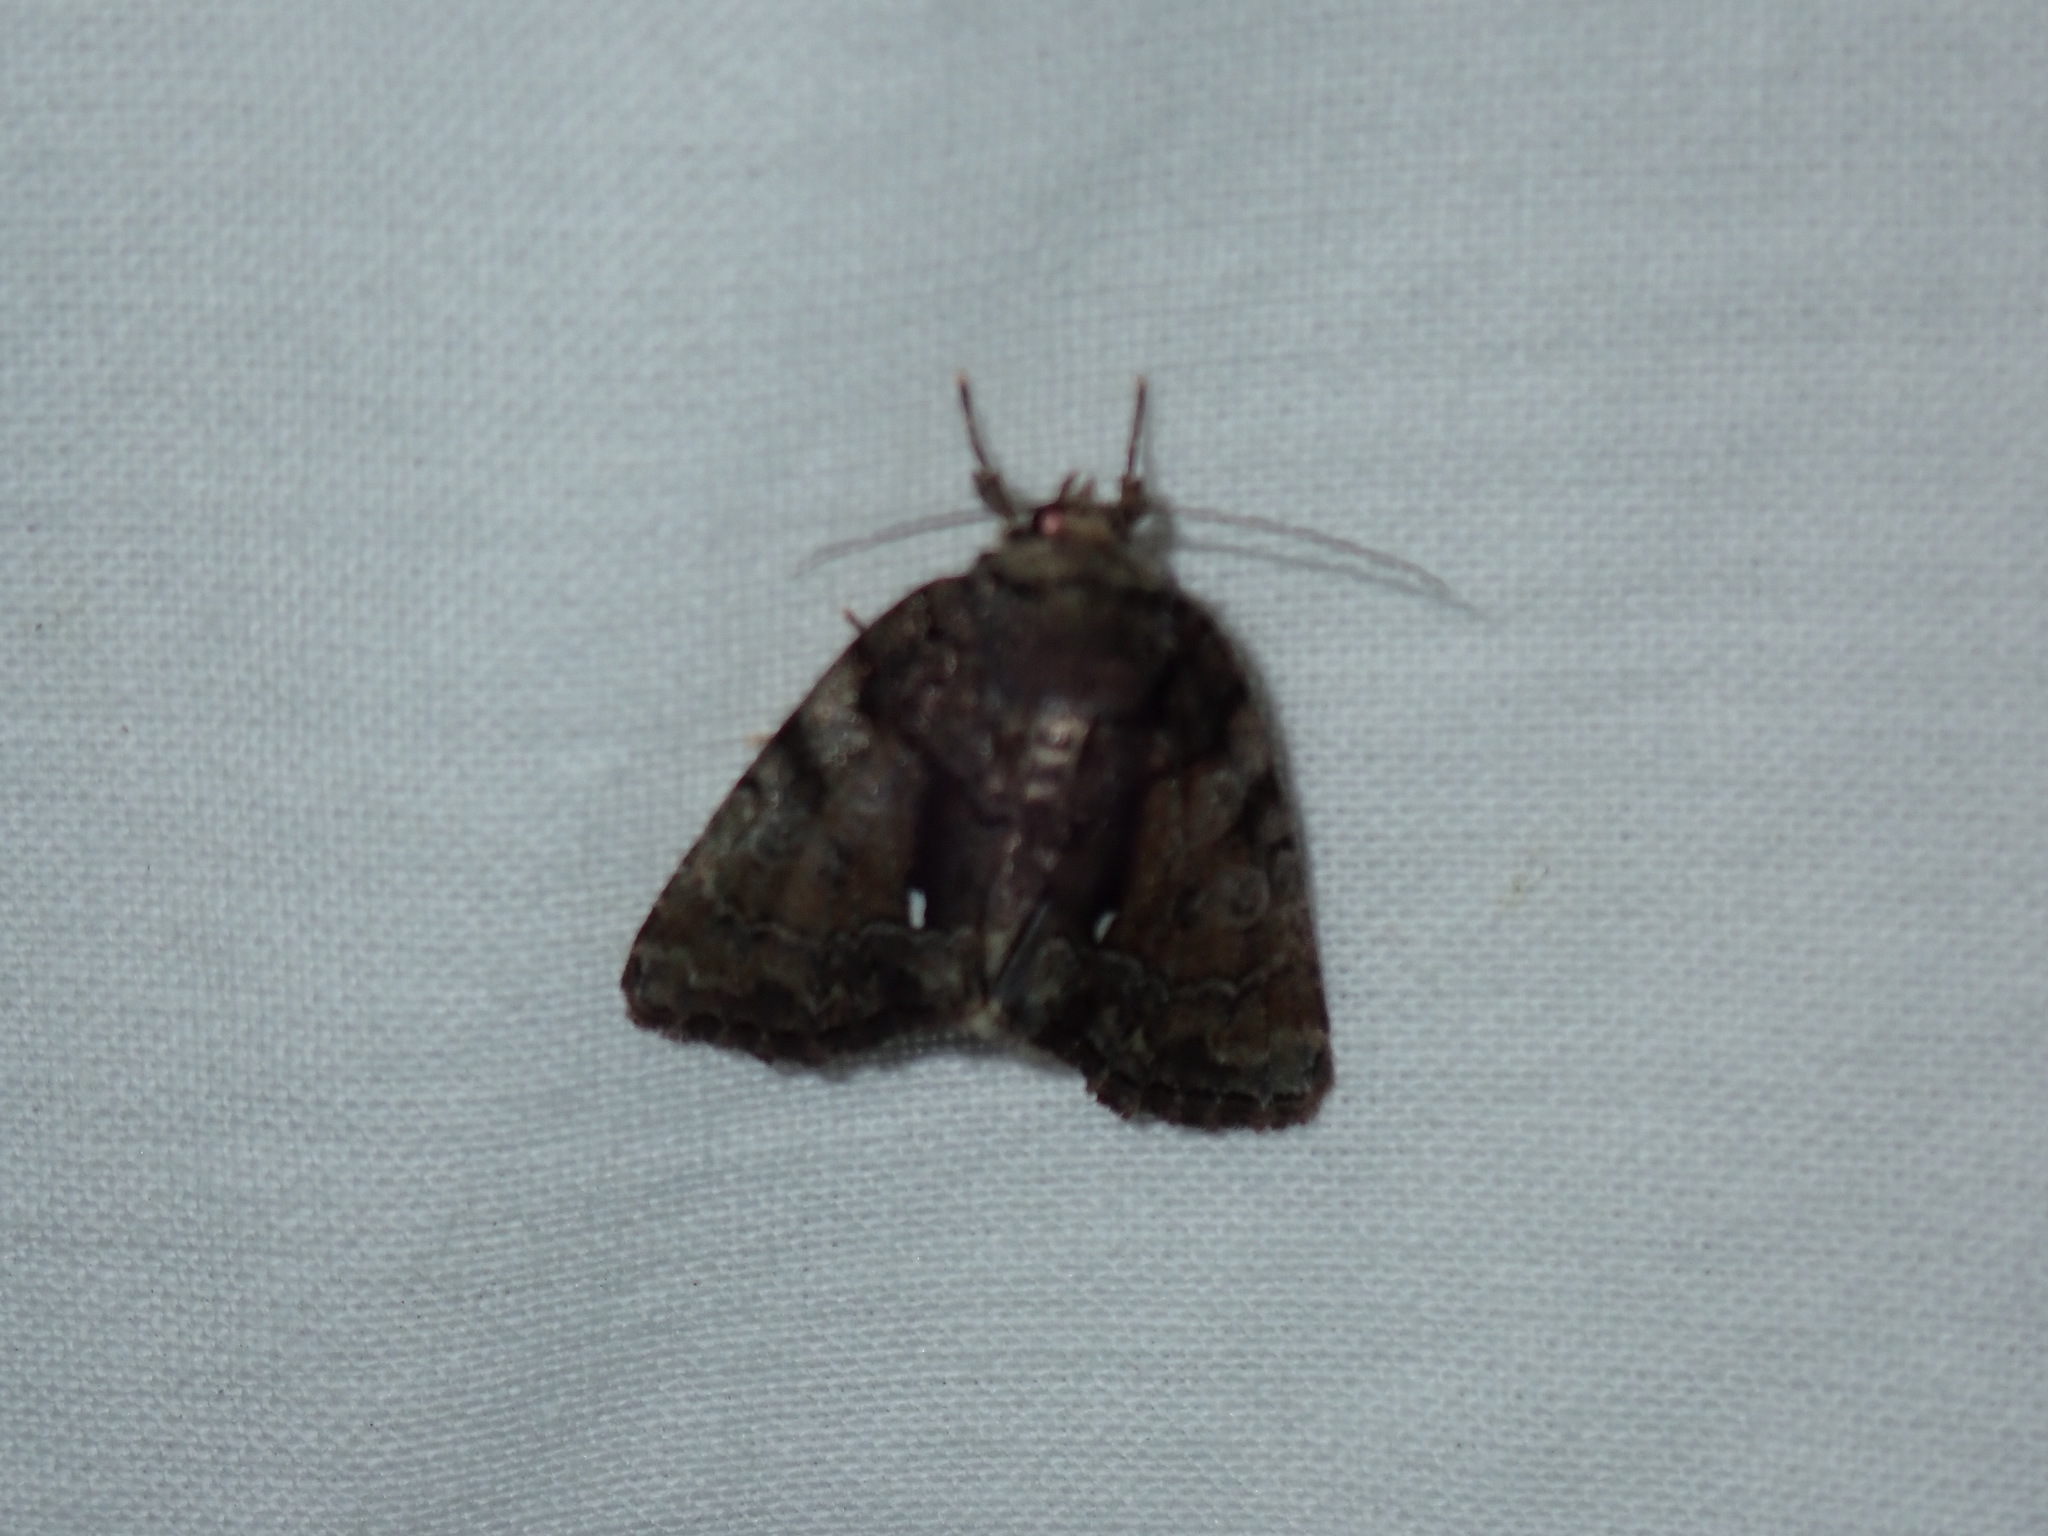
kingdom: Animalia
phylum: Arthropoda
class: Insecta
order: Lepidoptera
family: Noctuidae
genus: Chytonix
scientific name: Chytonix palliatricula
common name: Cloaked marvel
